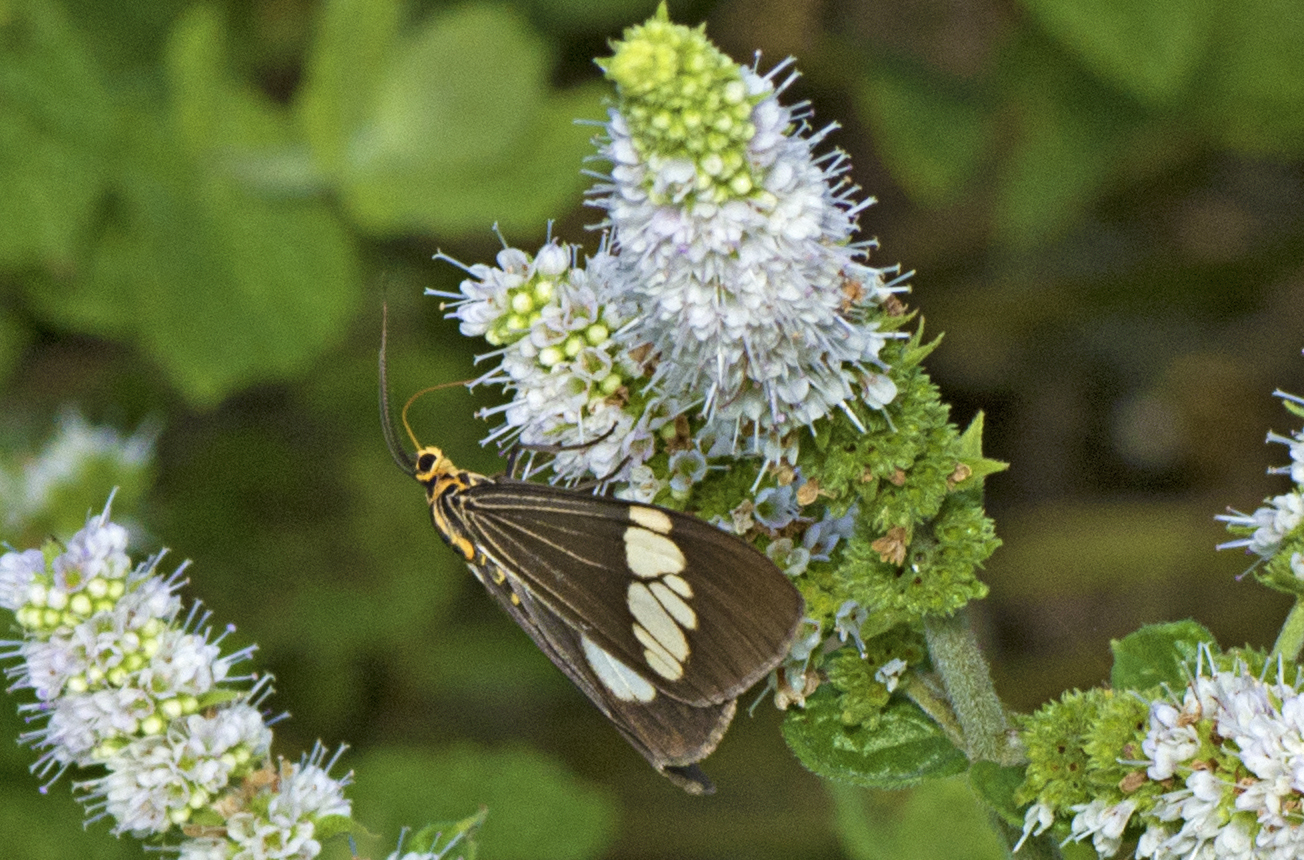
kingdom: Animalia
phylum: Arthropoda
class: Insecta
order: Lepidoptera
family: Erebidae
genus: Nyctemera
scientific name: Nyctemera baulus
